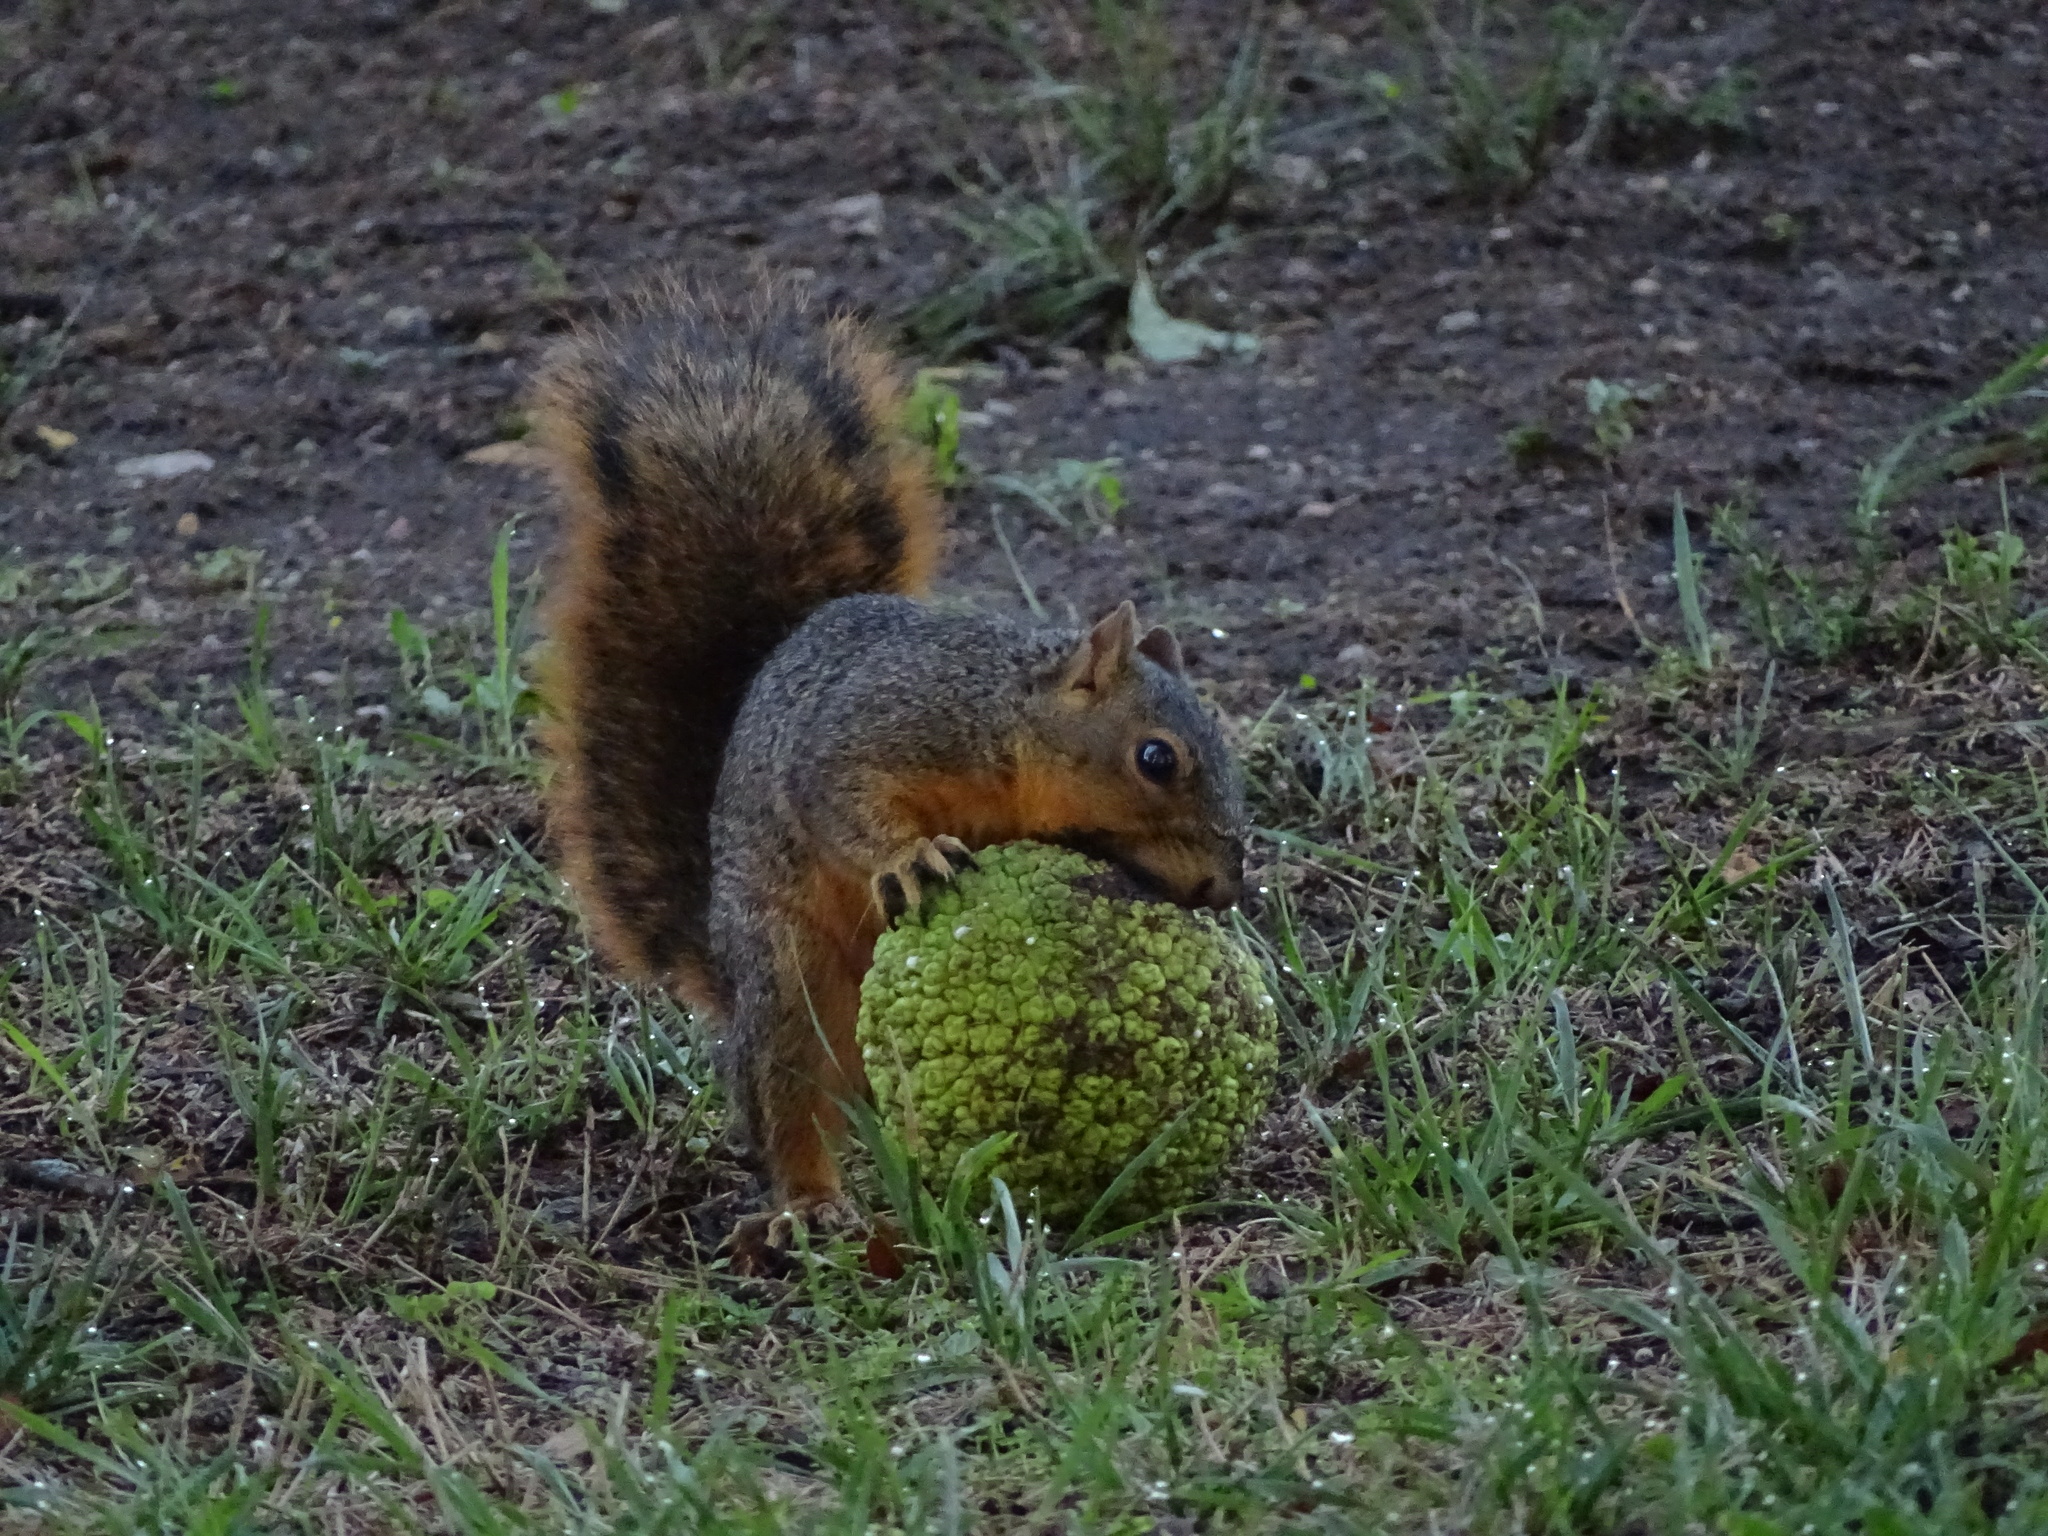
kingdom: Animalia
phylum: Chordata
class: Mammalia
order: Rodentia
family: Sciuridae
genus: Sciurus
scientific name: Sciurus niger
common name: Fox squirrel
